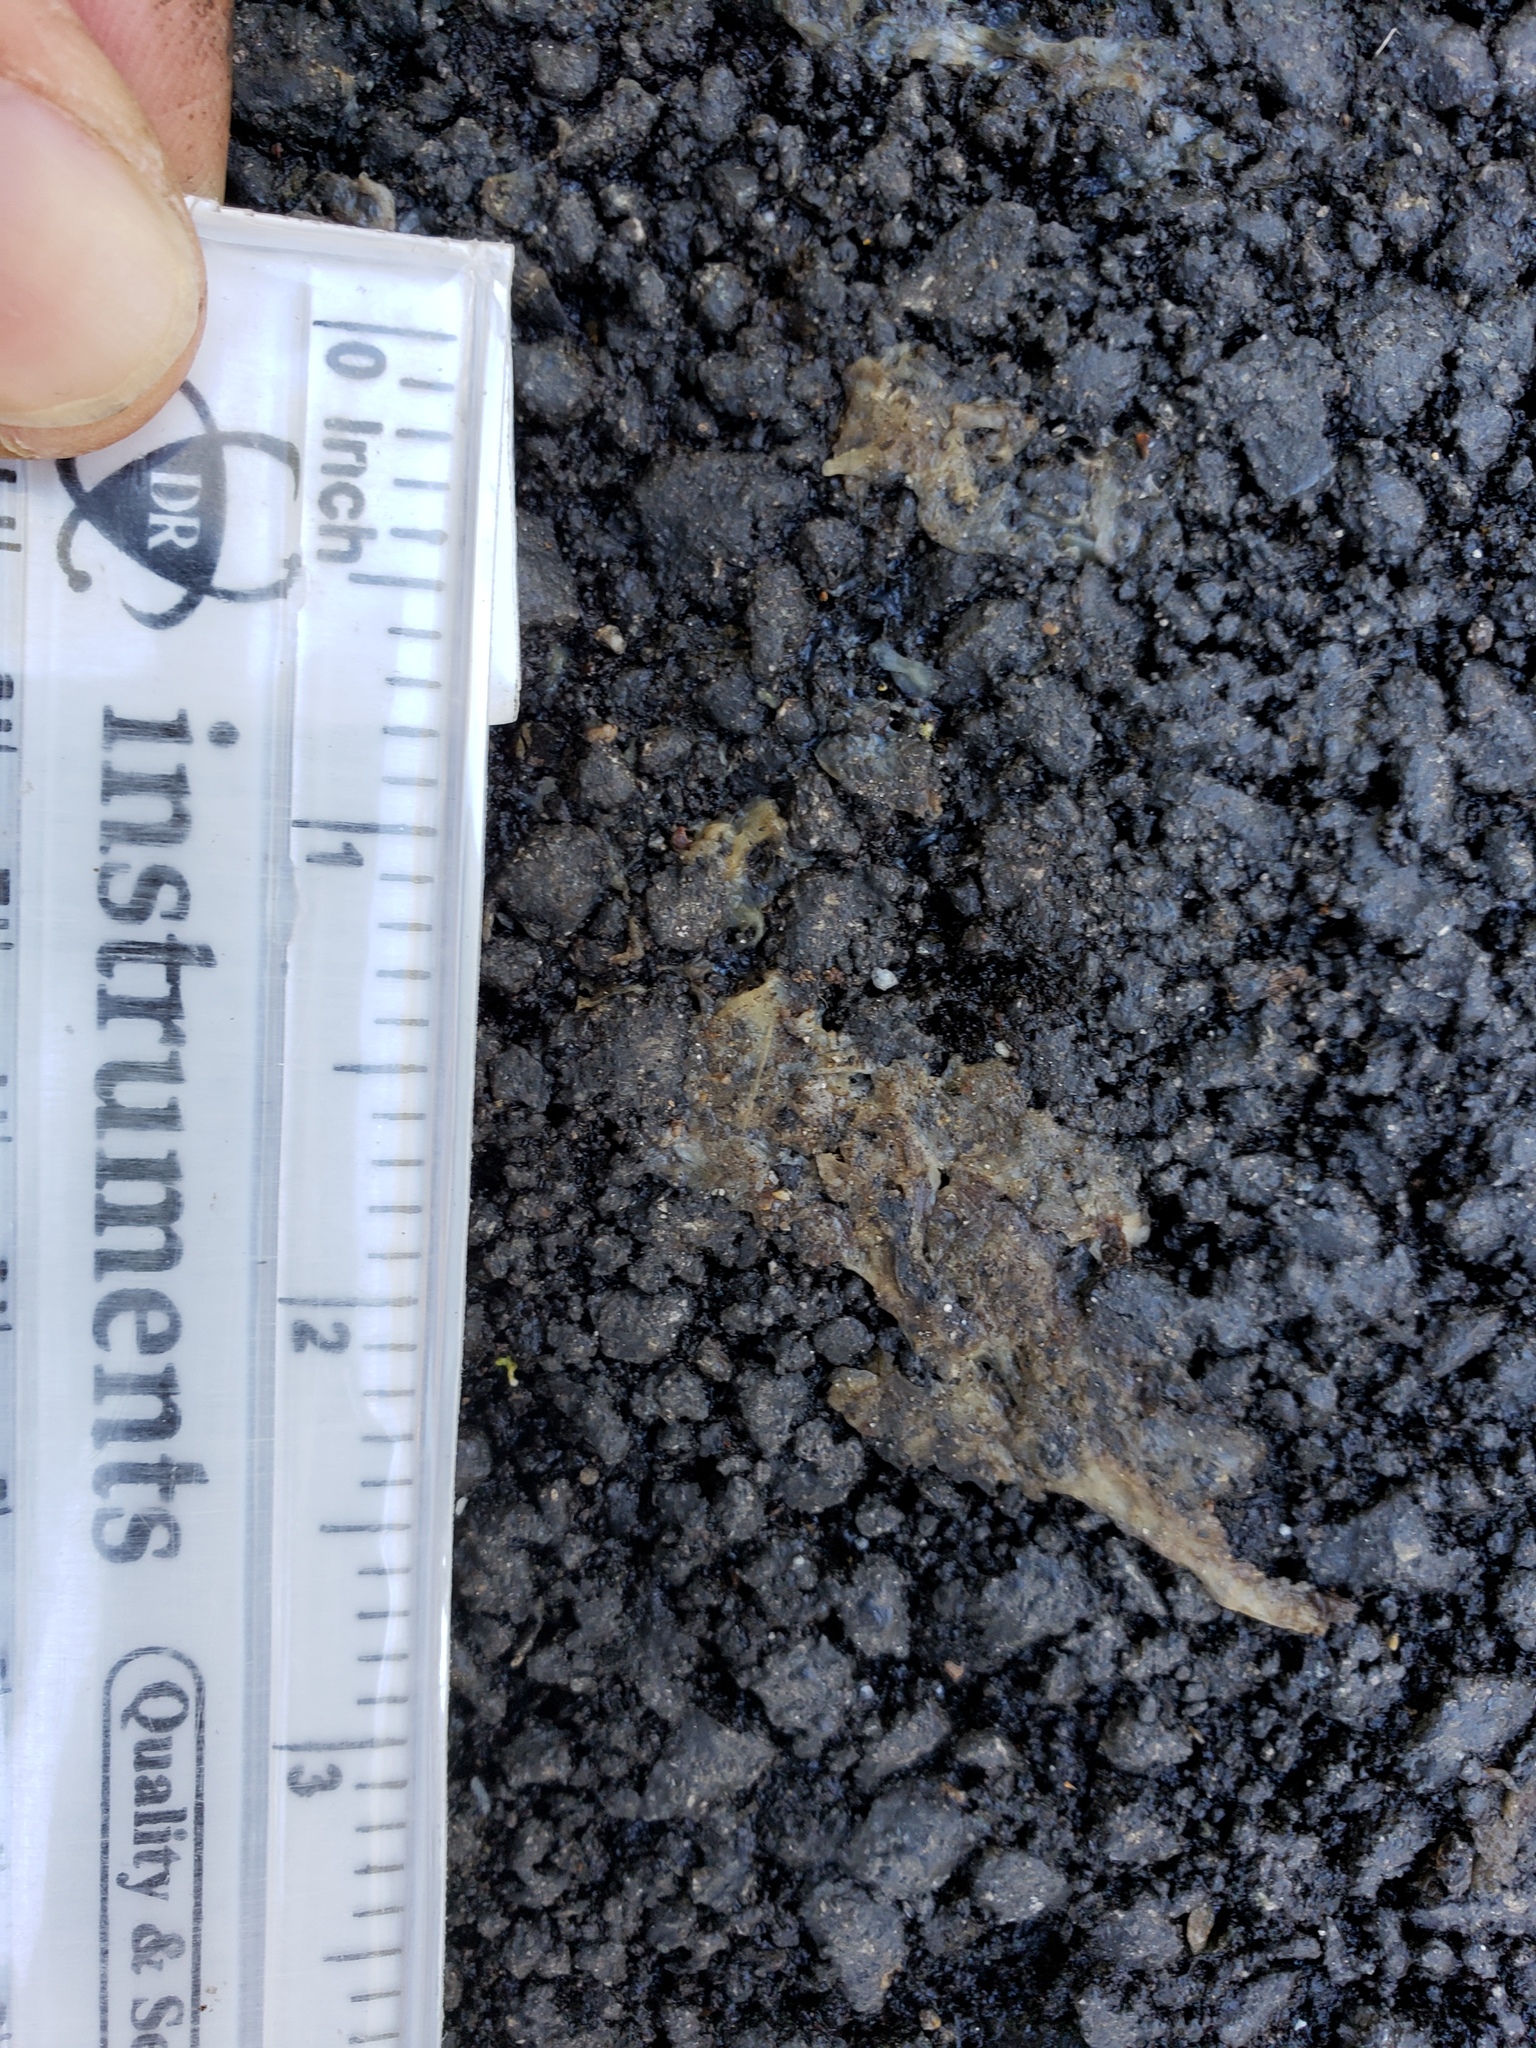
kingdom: Animalia
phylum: Chordata
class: Amphibia
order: Caudata
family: Salamandridae
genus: Taricha
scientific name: Taricha
